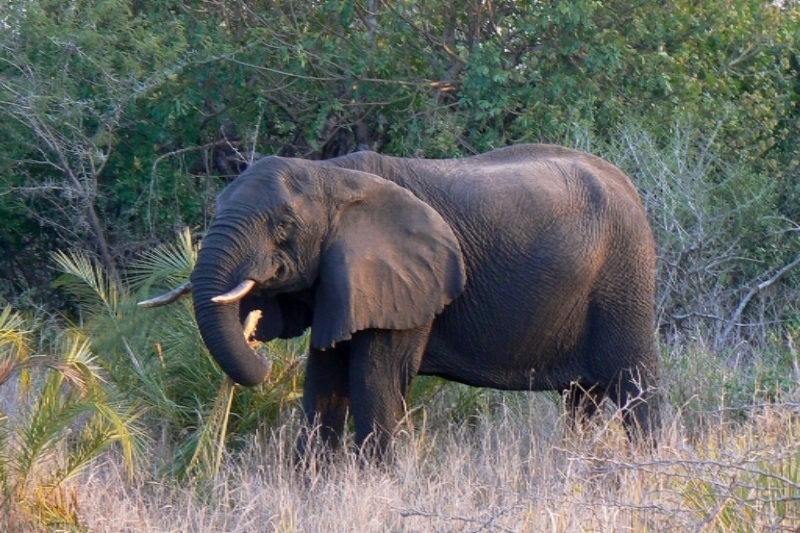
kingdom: Plantae
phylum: Tracheophyta
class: Liliopsida
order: Arecales
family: Arecaceae
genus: Phoenix
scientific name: Phoenix reclinata
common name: Senegal date palm
